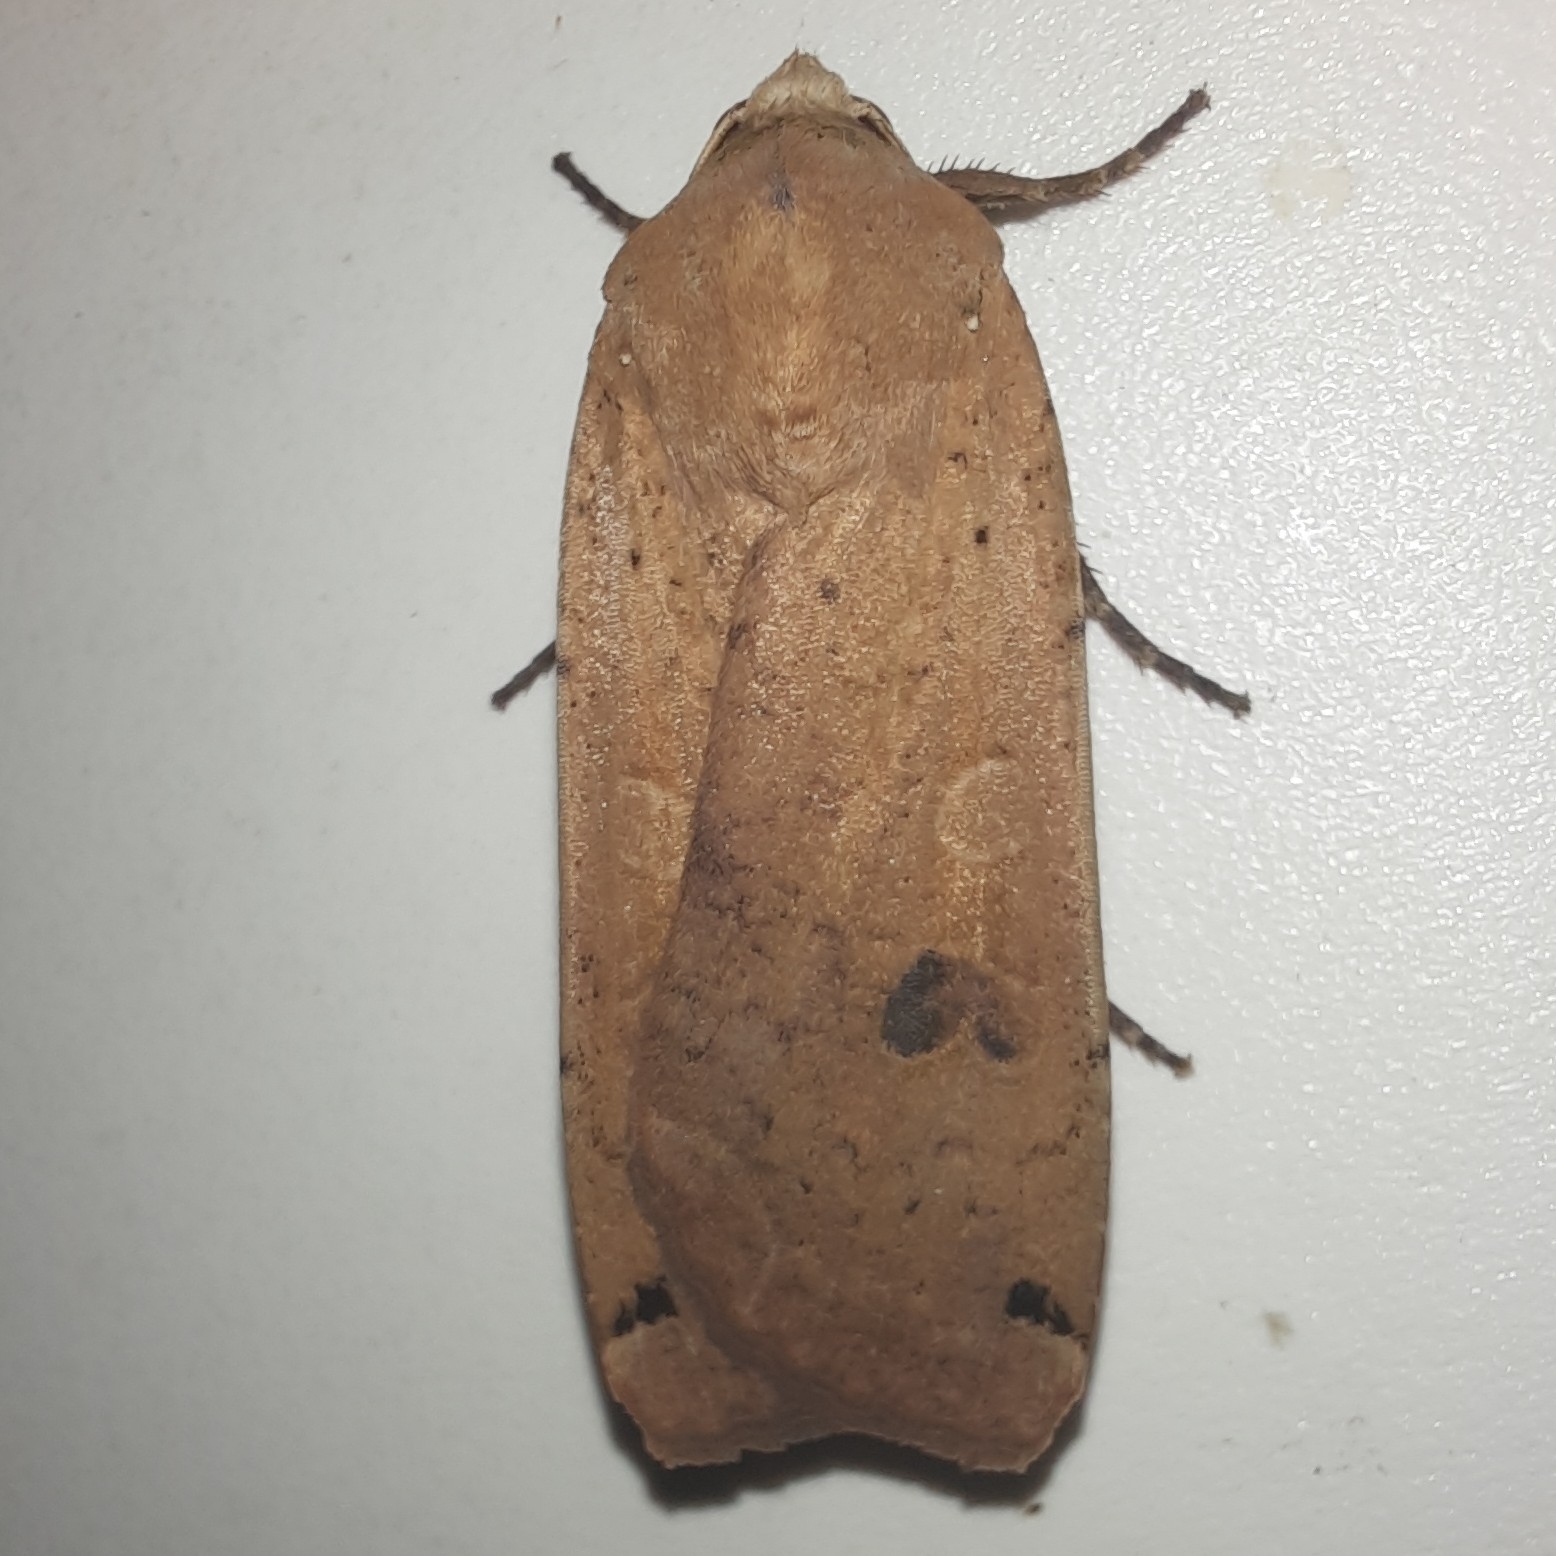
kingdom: Animalia
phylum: Arthropoda
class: Insecta
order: Lepidoptera
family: Noctuidae
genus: Noctua
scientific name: Noctua pronuba
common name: Large yellow underwing
